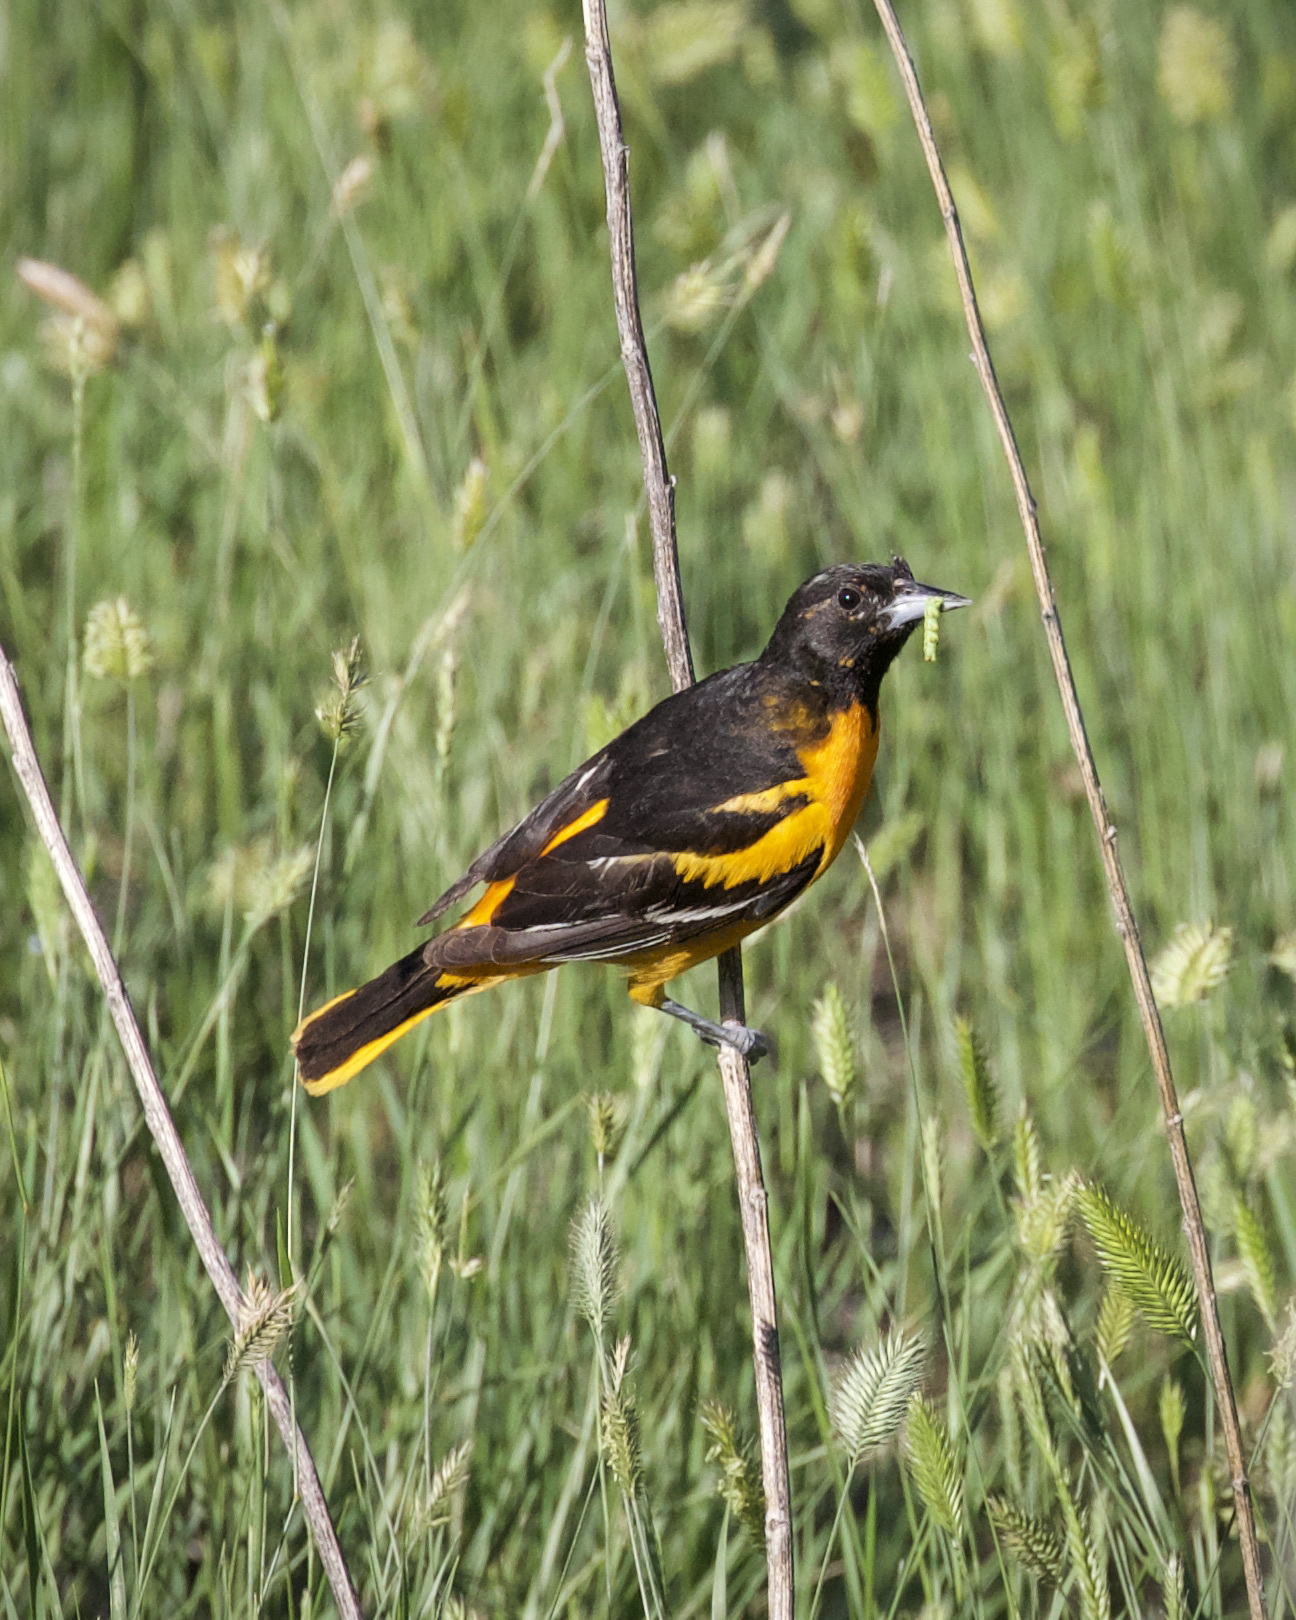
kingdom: Animalia
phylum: Chordata
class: Aves
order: Passeriformes
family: Icteridae
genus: Icterus
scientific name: Icterus galbula
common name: Baltimore oriole
